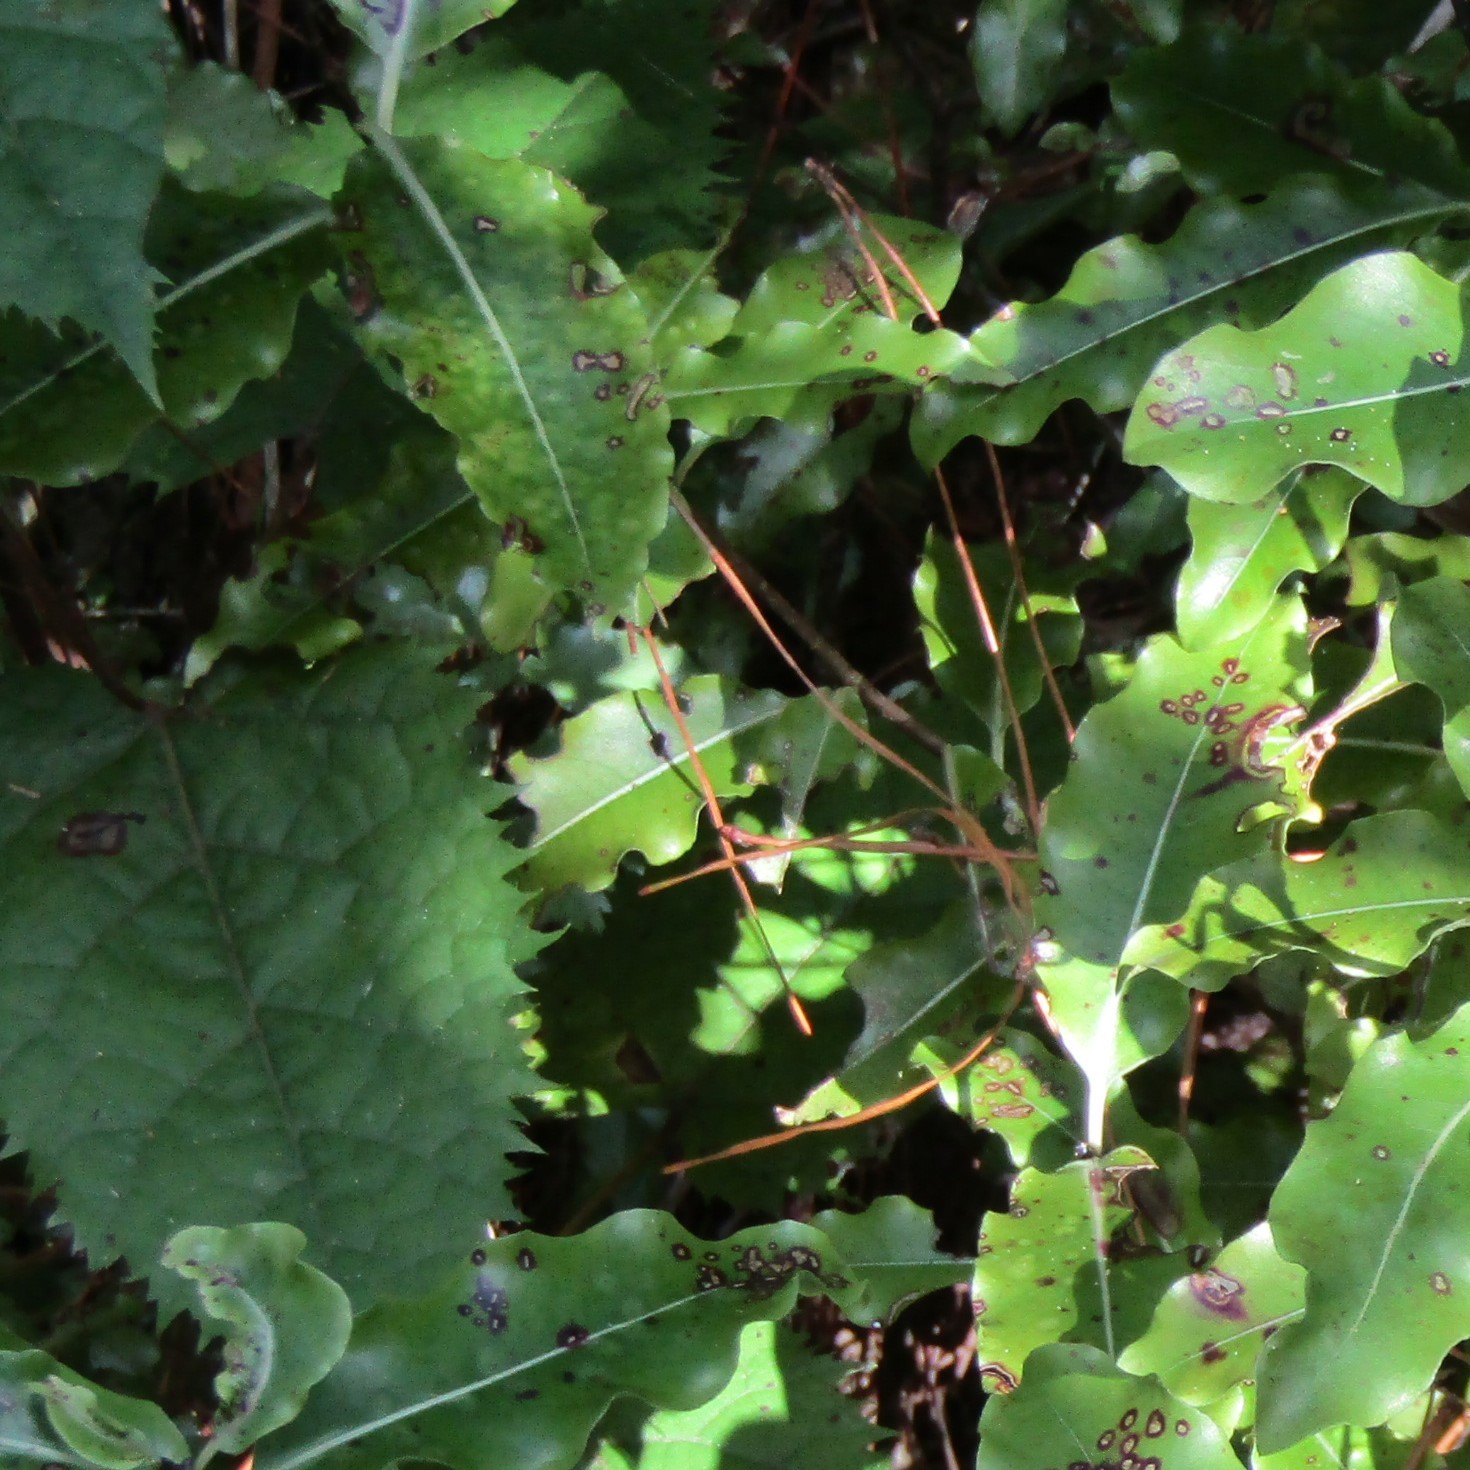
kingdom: Plantae
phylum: Tracheophyta
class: Magnoliopsida
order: Oxalidales
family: Elaeocarpaceae
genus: Aristotelia
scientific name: Aristotelia serrata
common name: New zealand wineberry
